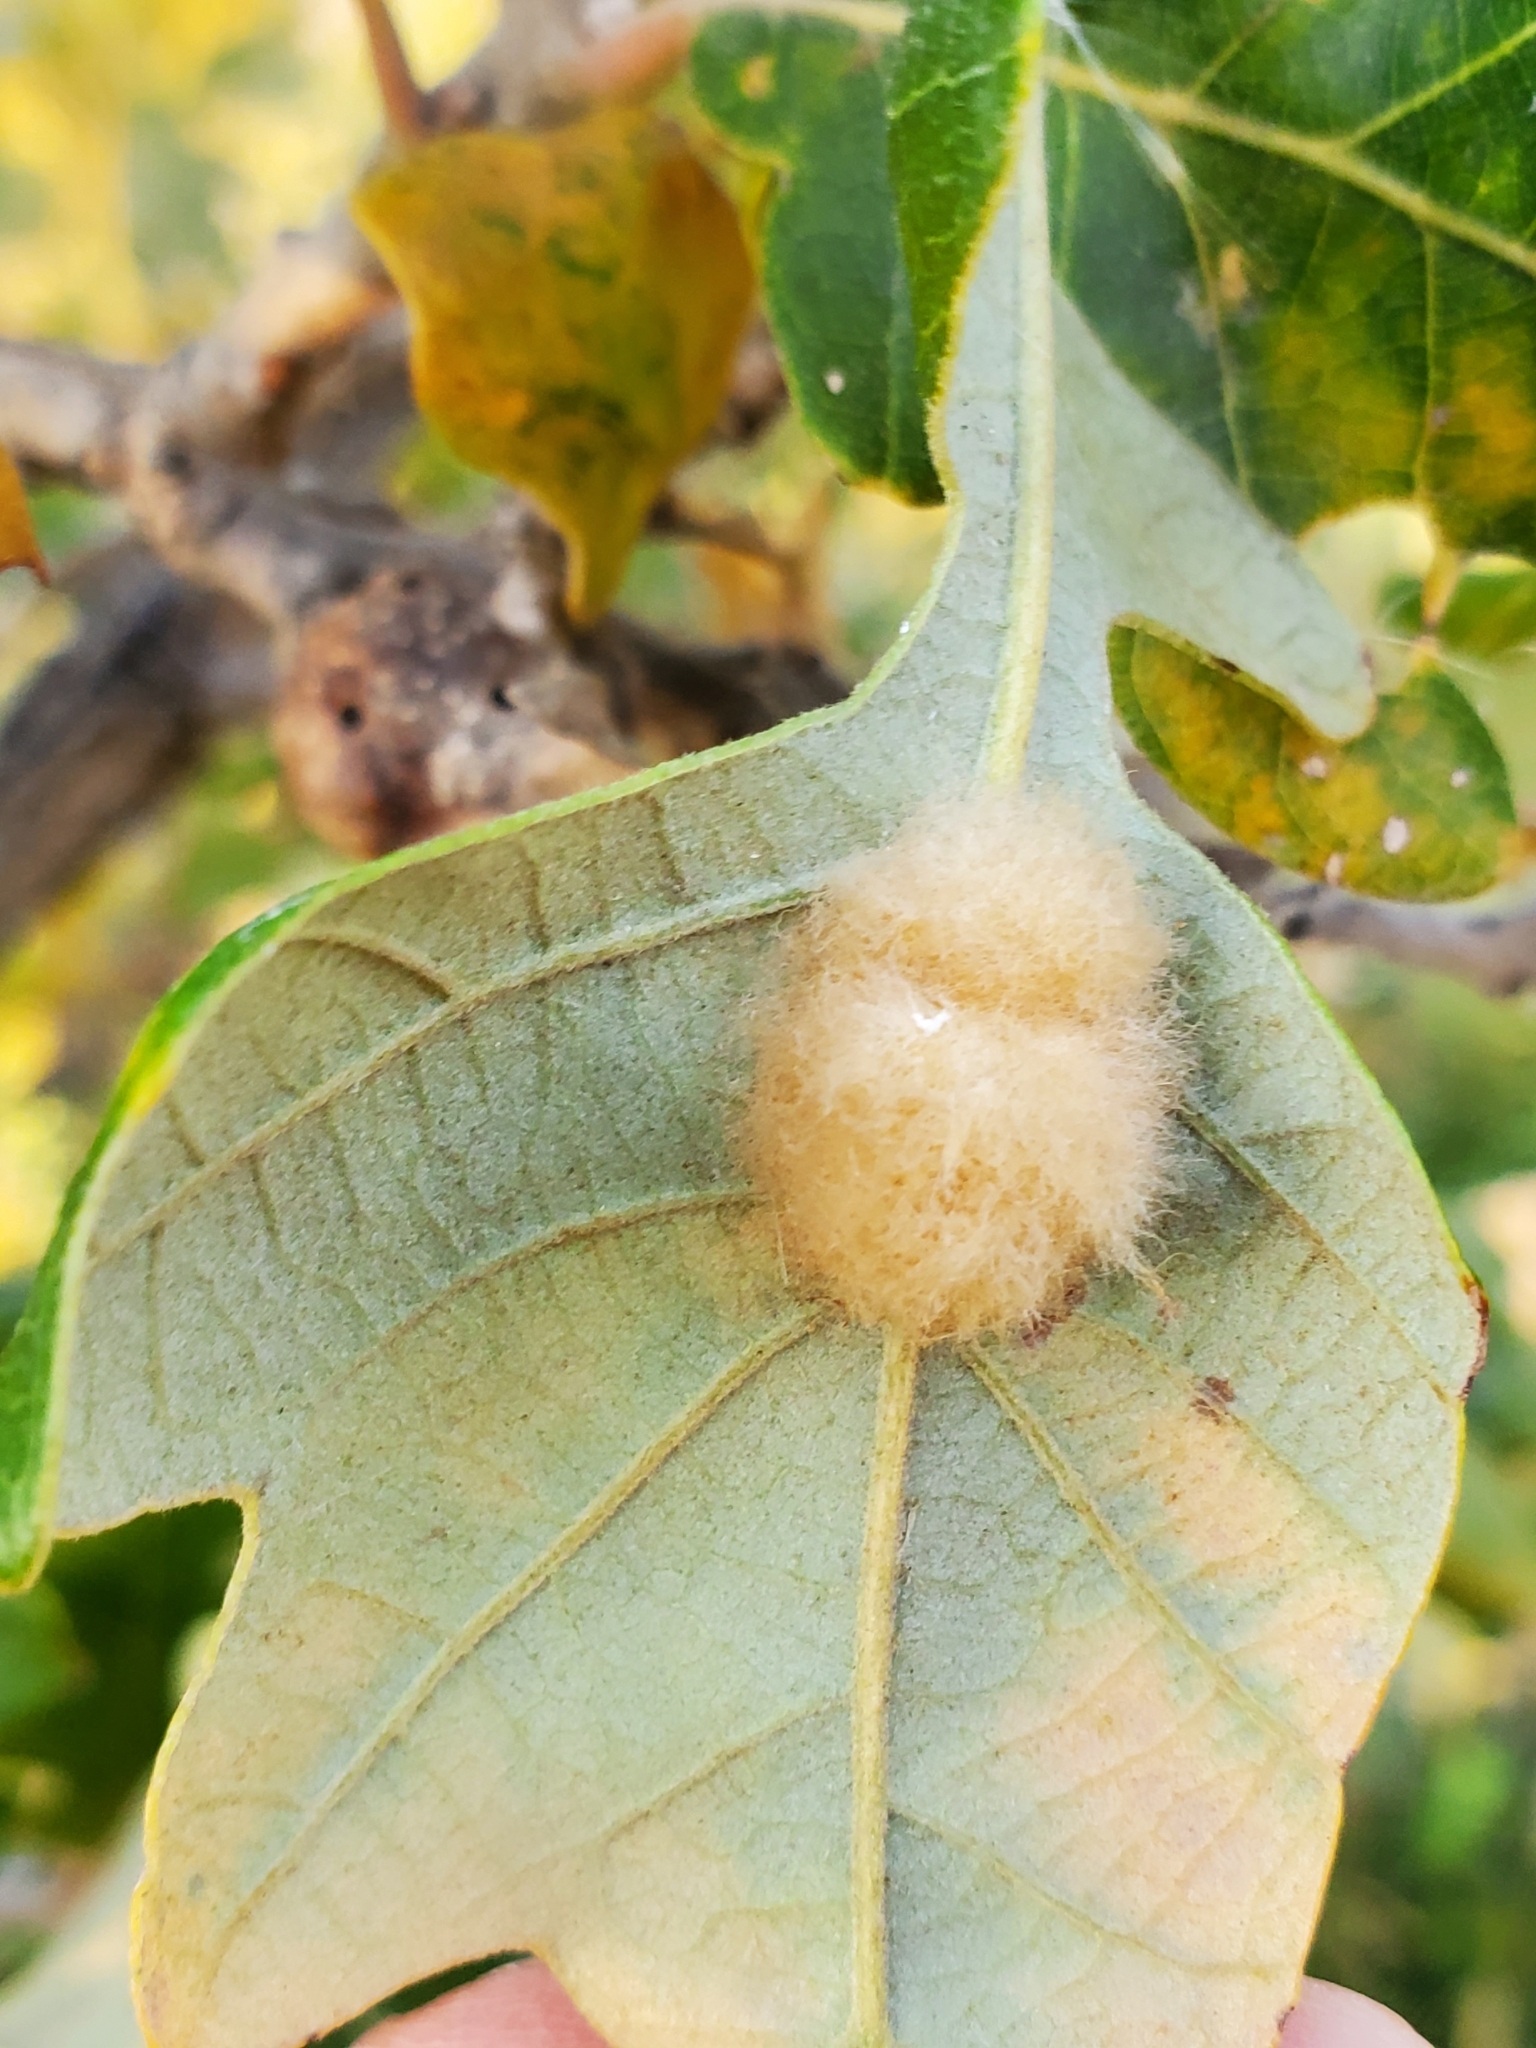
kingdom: Animalia
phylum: Arthropoda
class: Insecta
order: Hymenoptera
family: Cynipidae
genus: Andricus
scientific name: Andricus Druon ignotum
